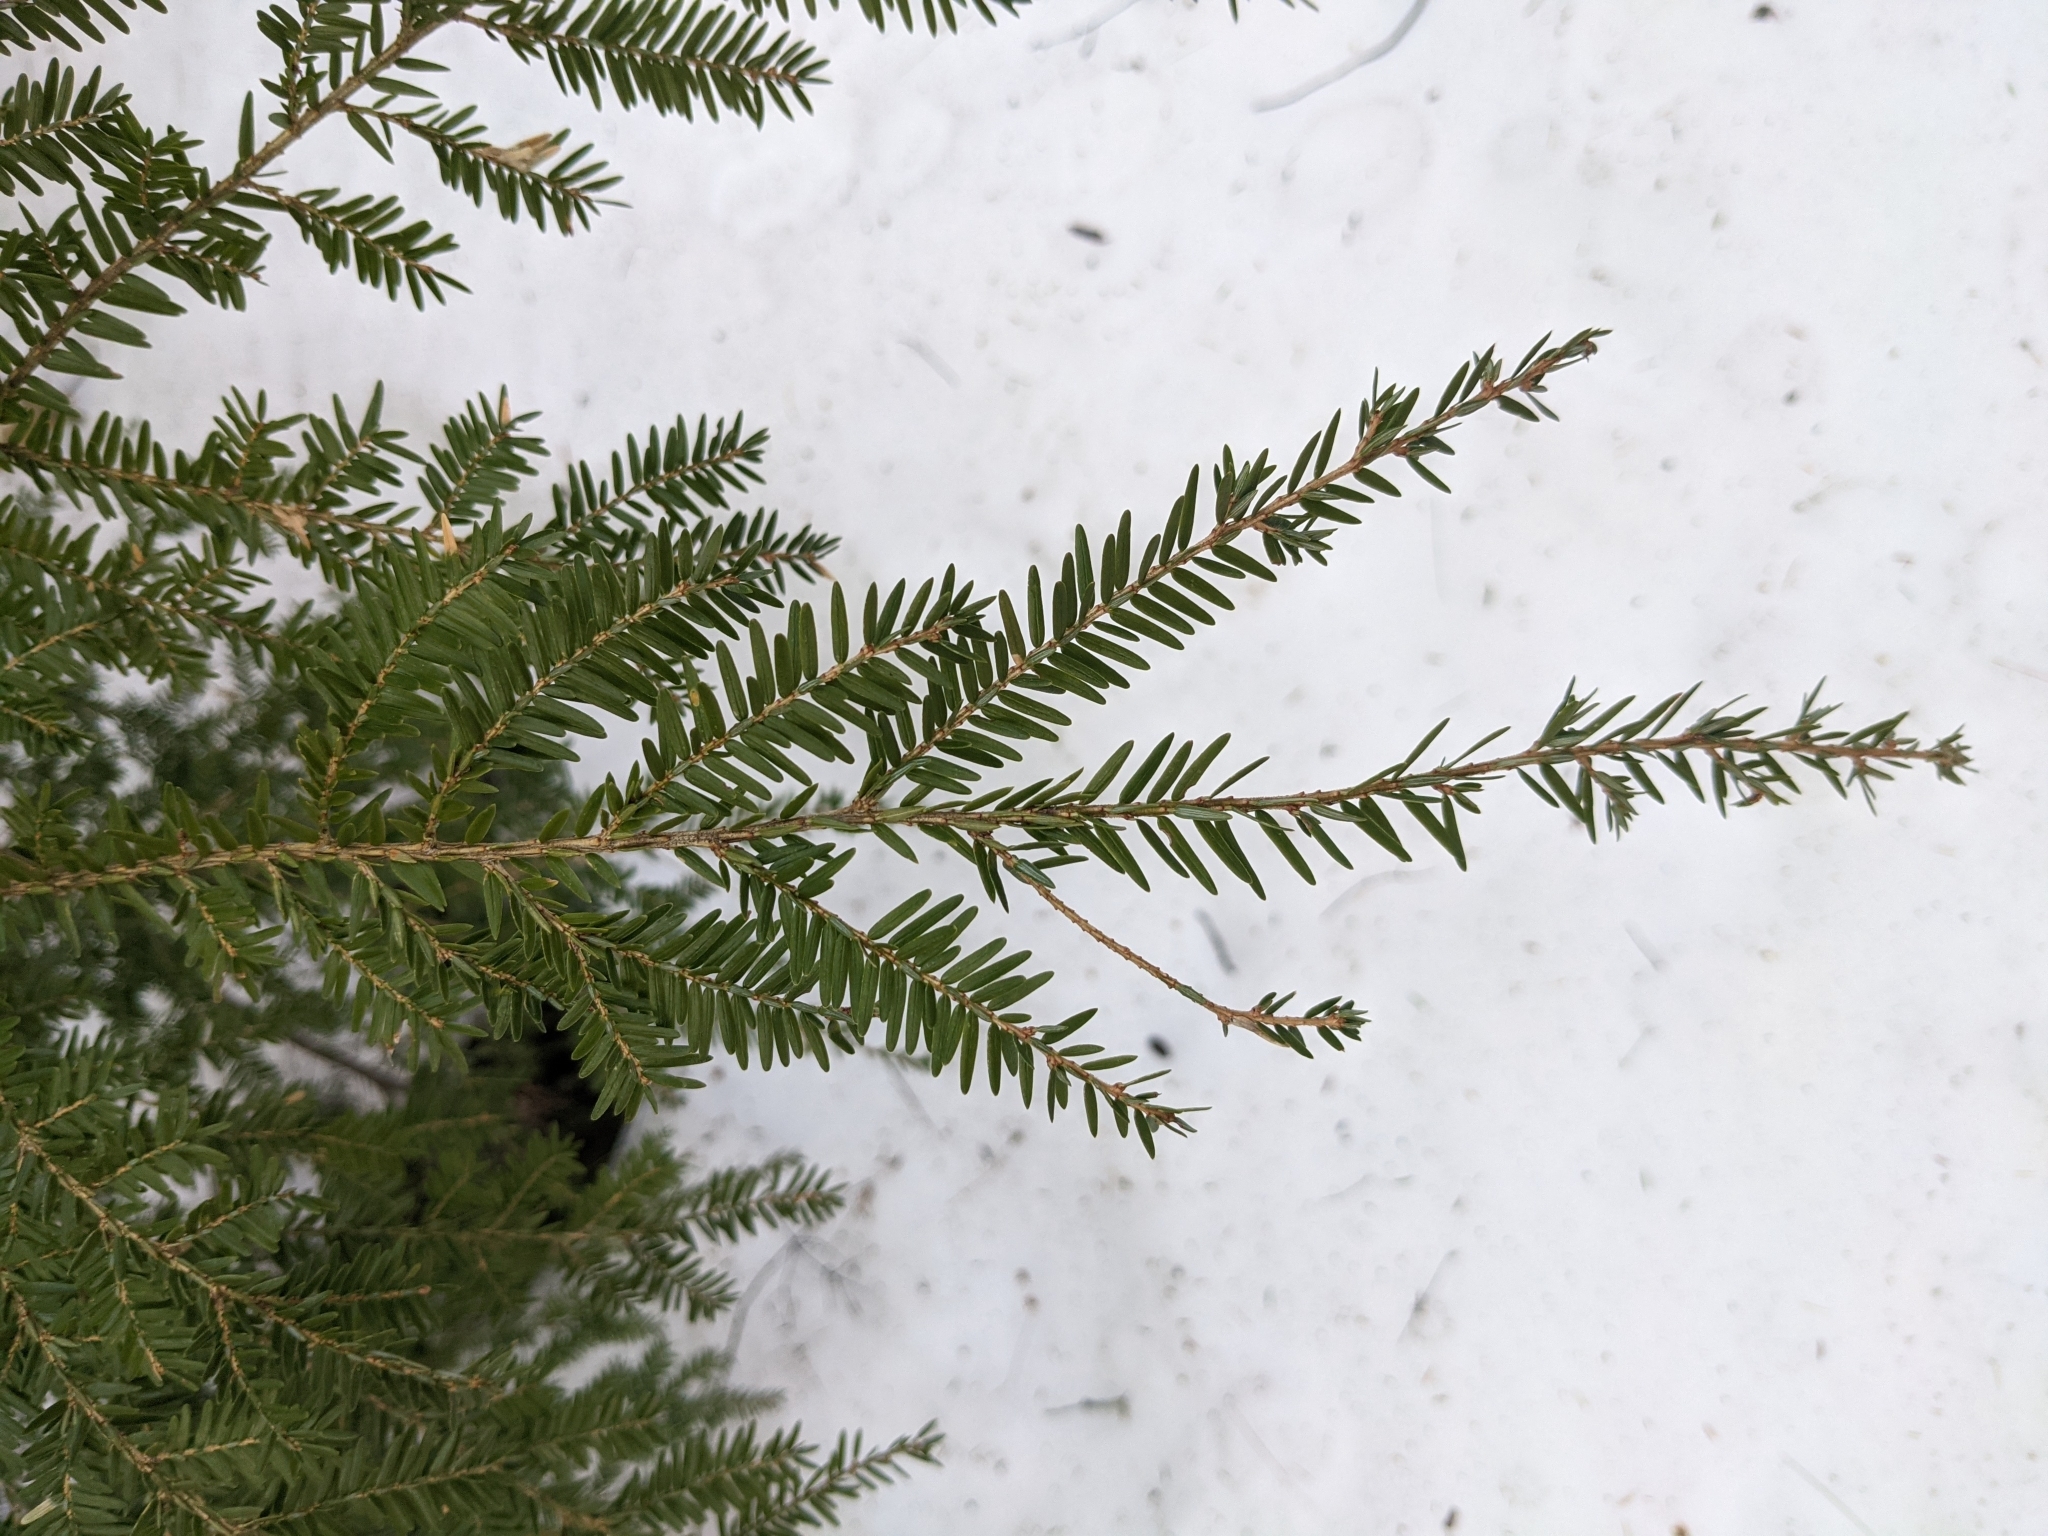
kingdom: Plantae
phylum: Tracheophyta
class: Pinopsida
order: Pinales
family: Pinaceae
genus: Tsuga
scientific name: Tsuga canadensis
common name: Eastern hemlock
